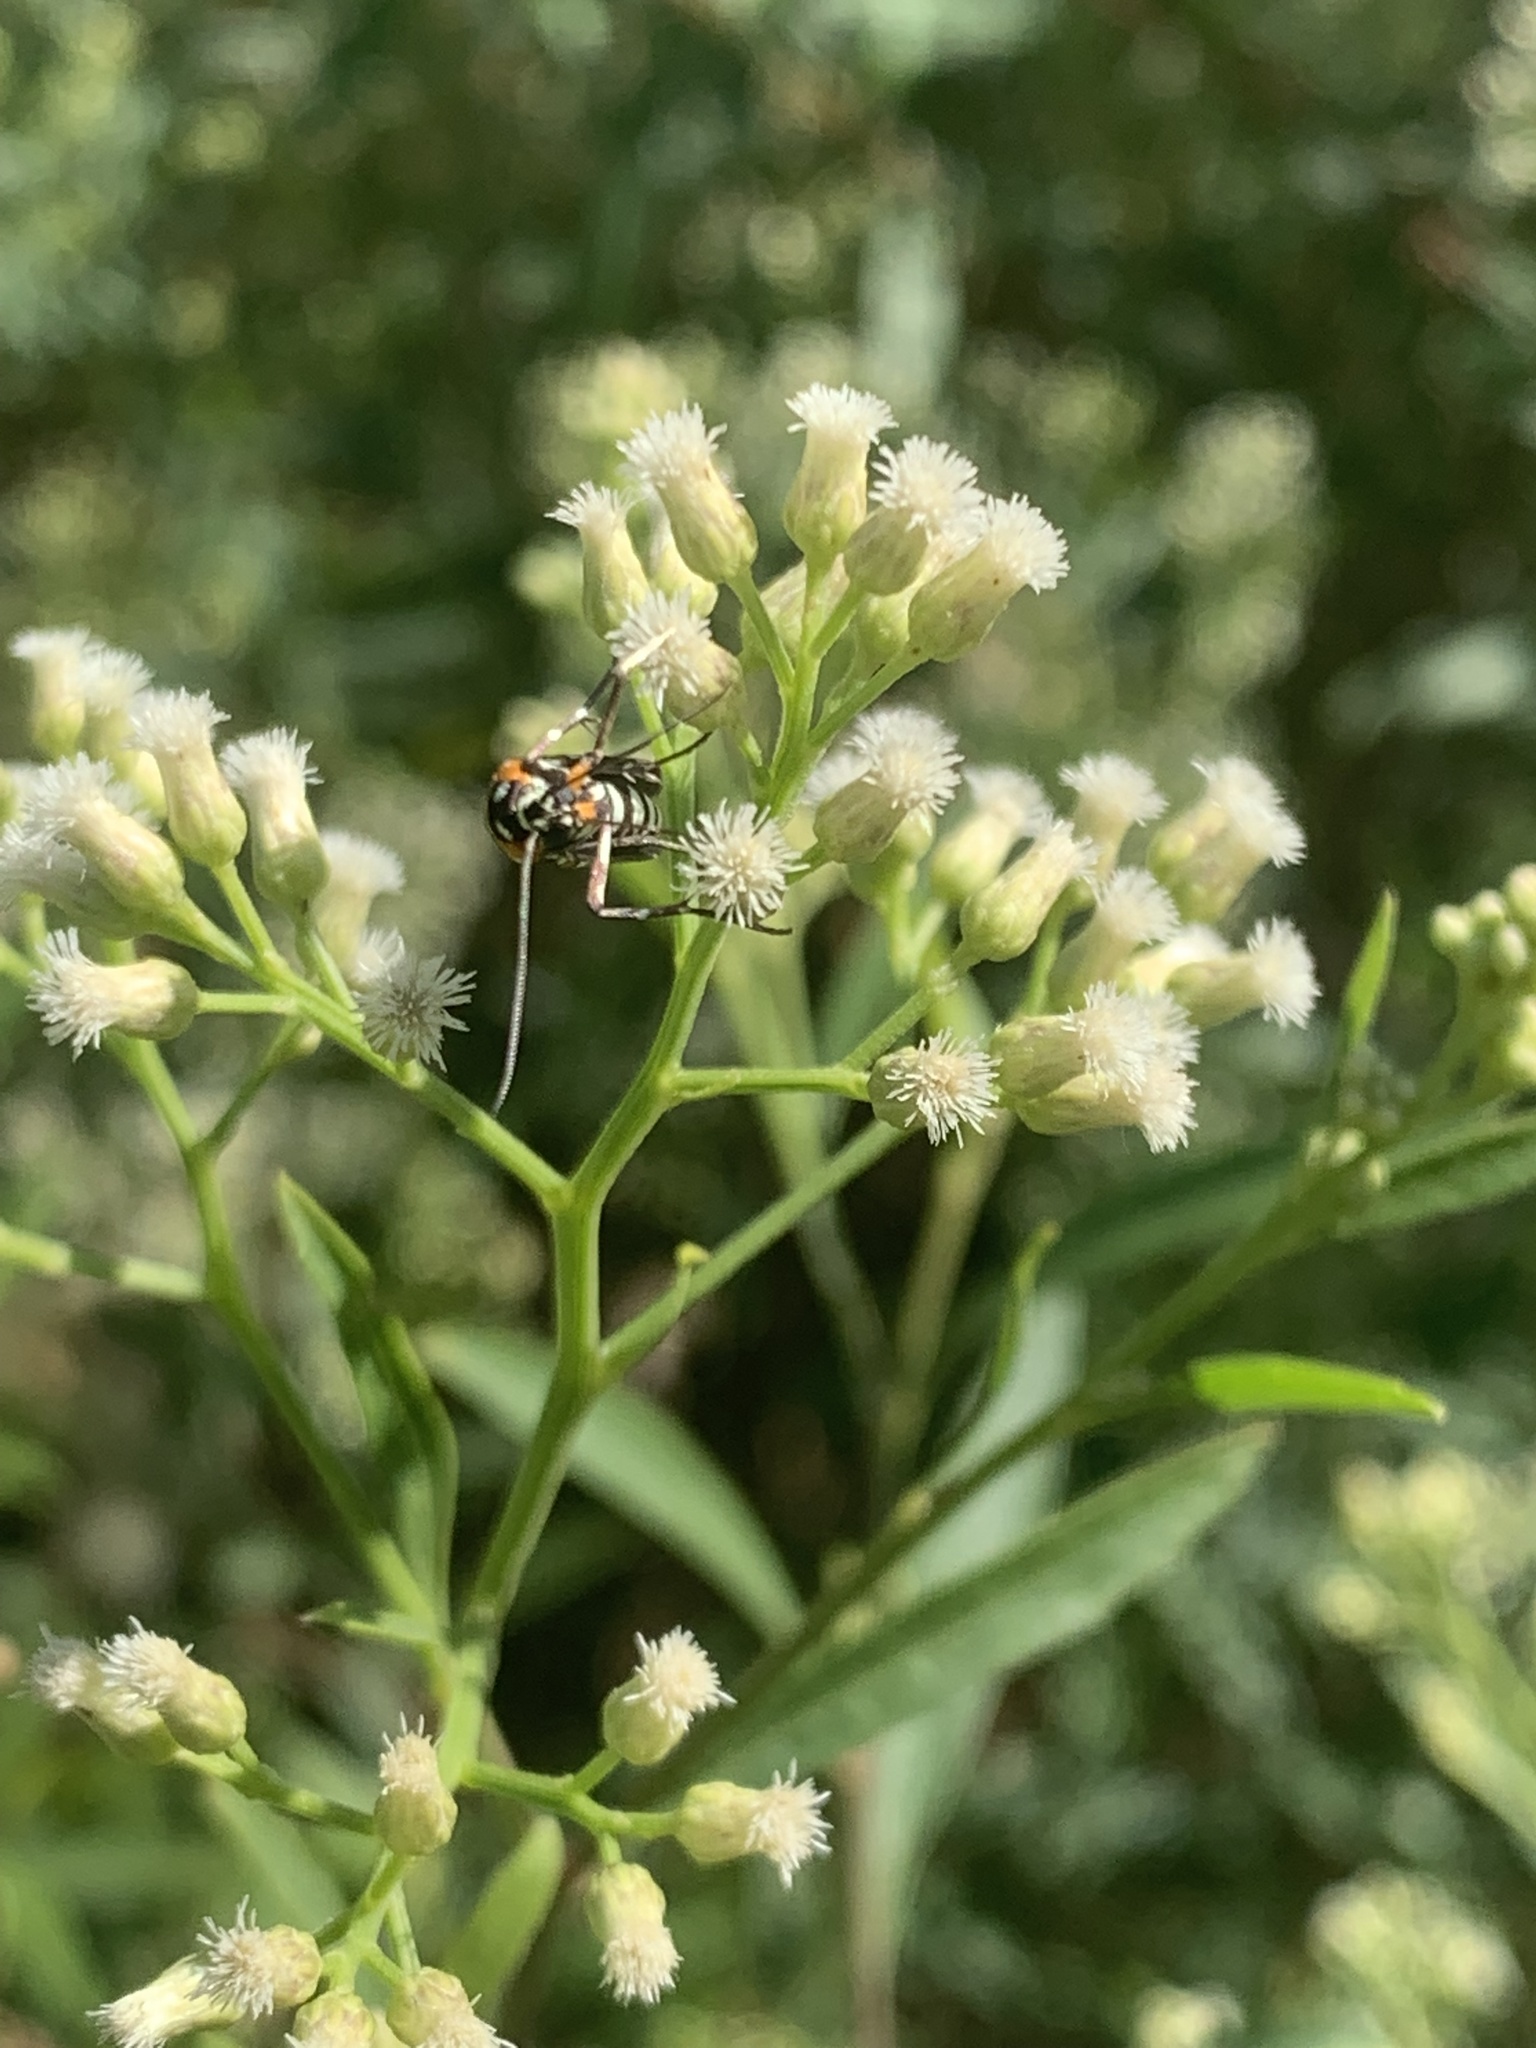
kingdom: Animalia
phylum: Arthropoda
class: Insecta
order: Lepidoptera
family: Attevidae
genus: Atteva
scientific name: Atteva punctella
